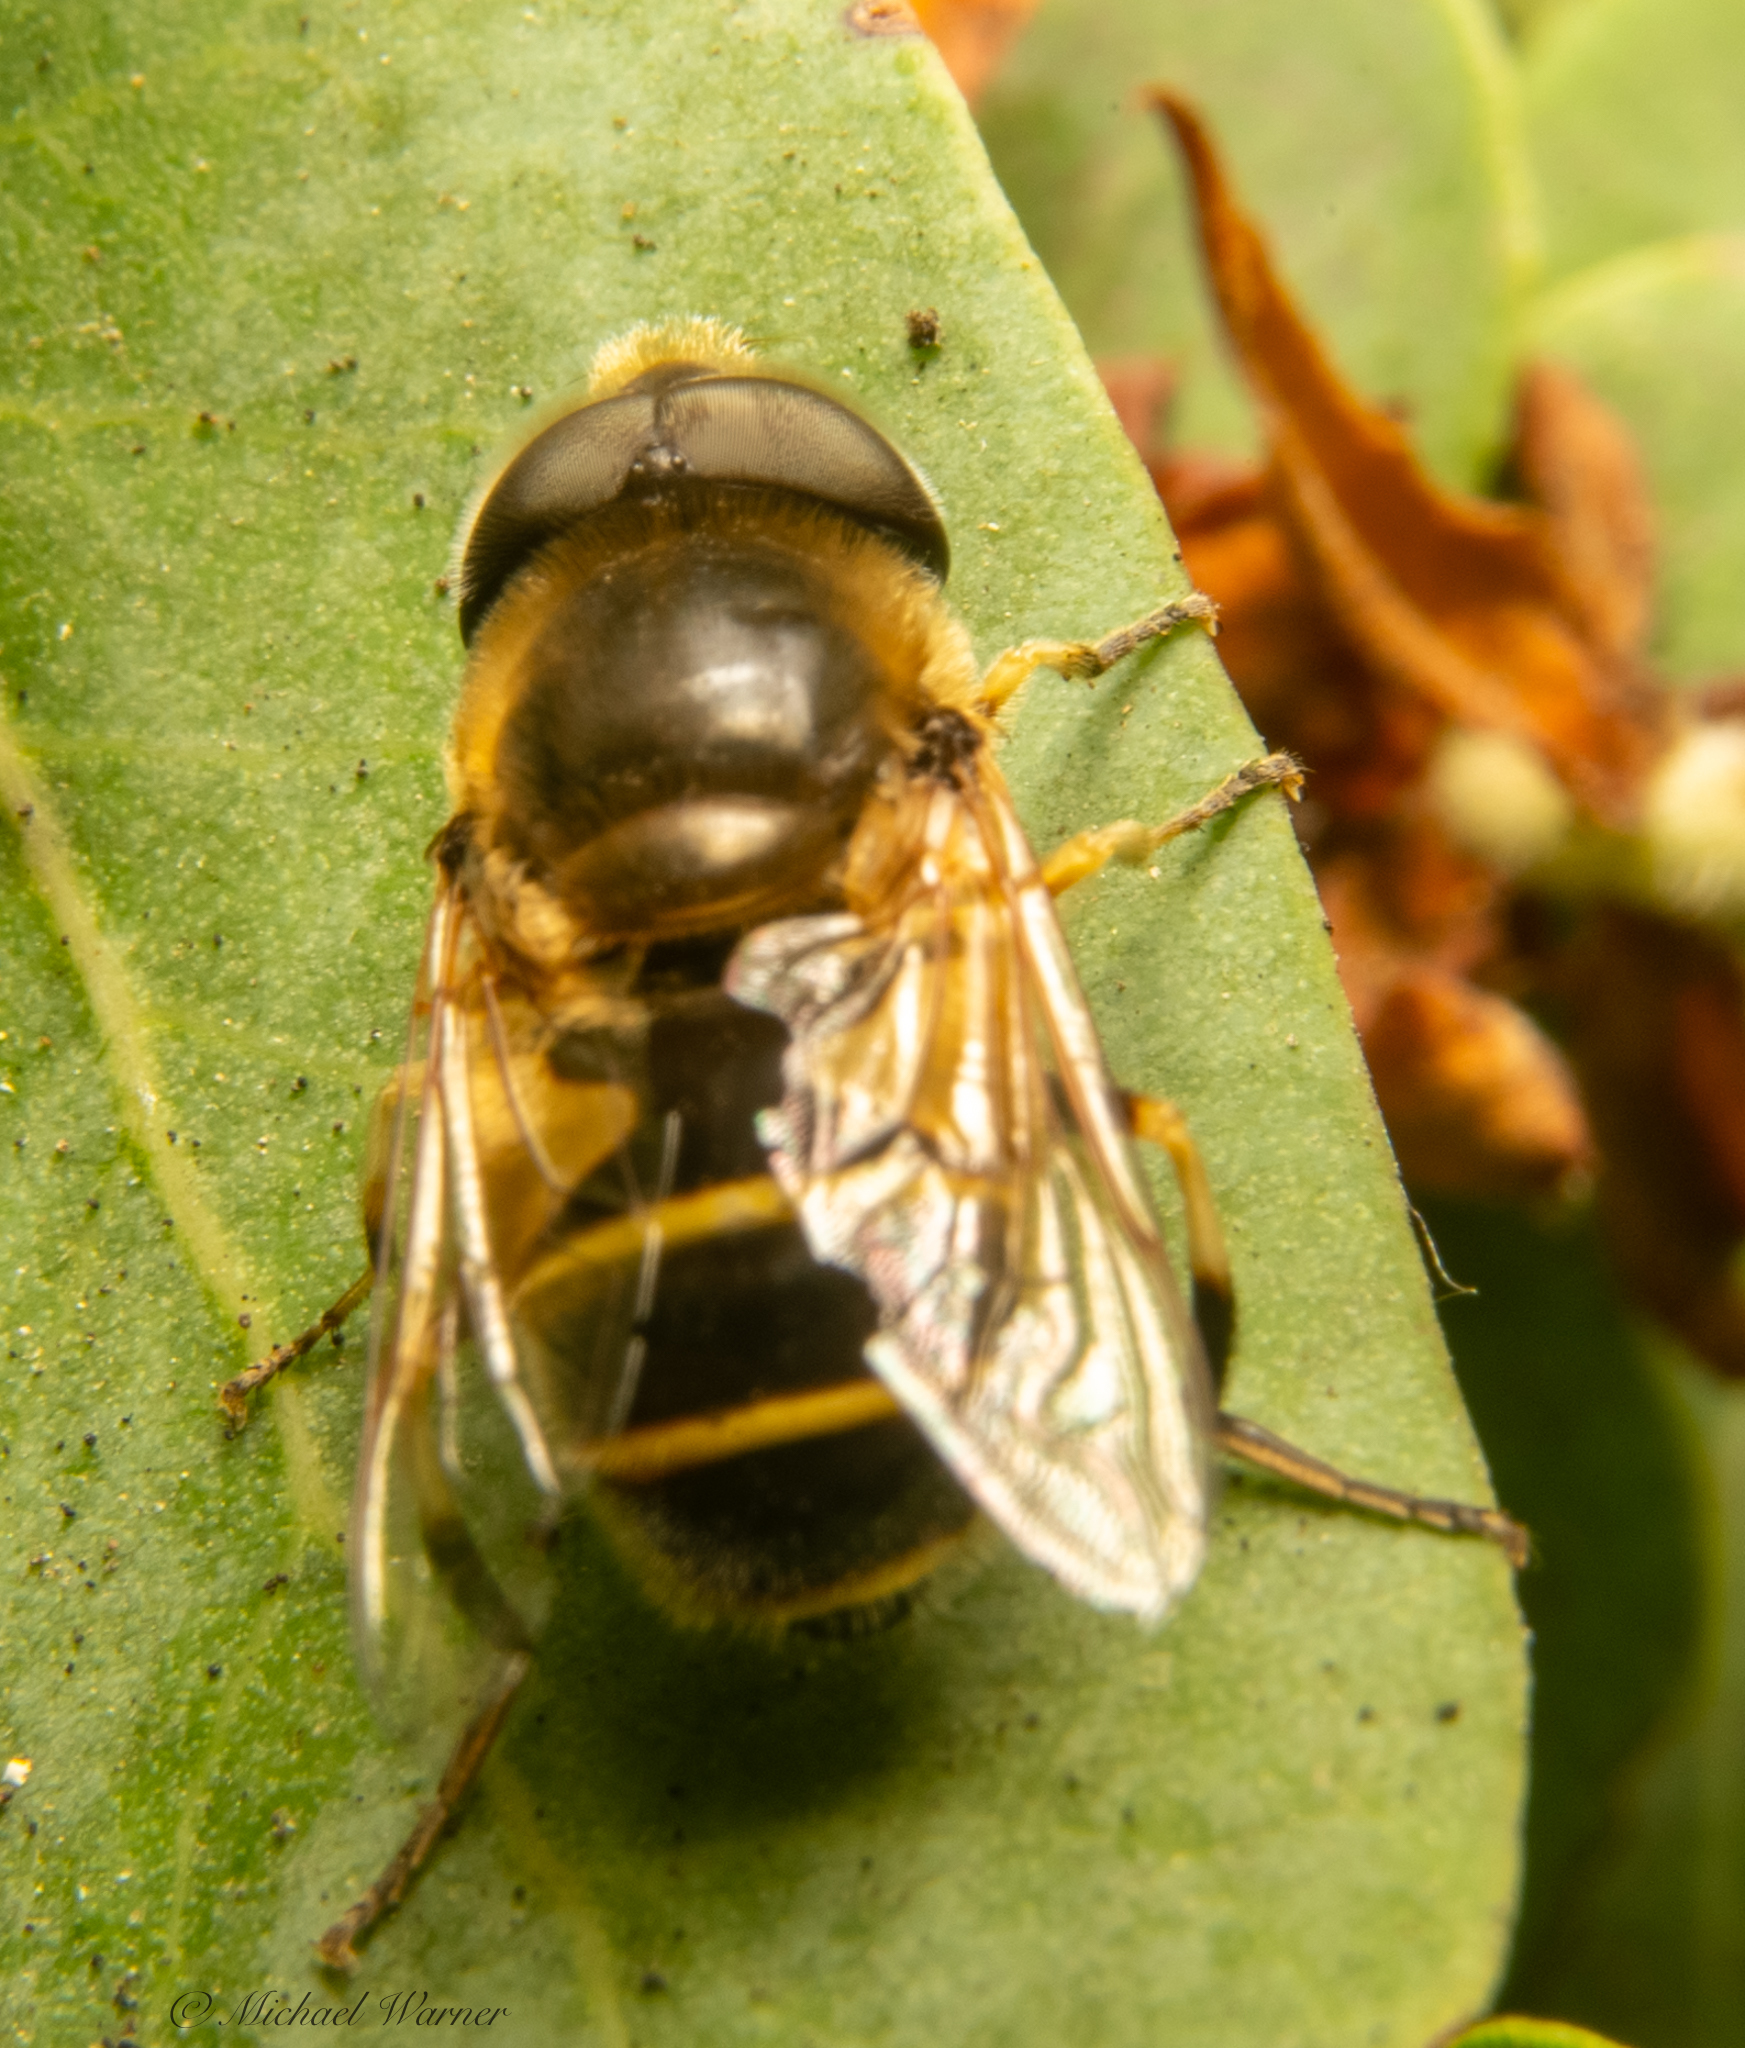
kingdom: Animalia
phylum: Arthropoda
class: Insecta
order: Diptera
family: Syrphidae
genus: Eristalis
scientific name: Eristalis hirta
